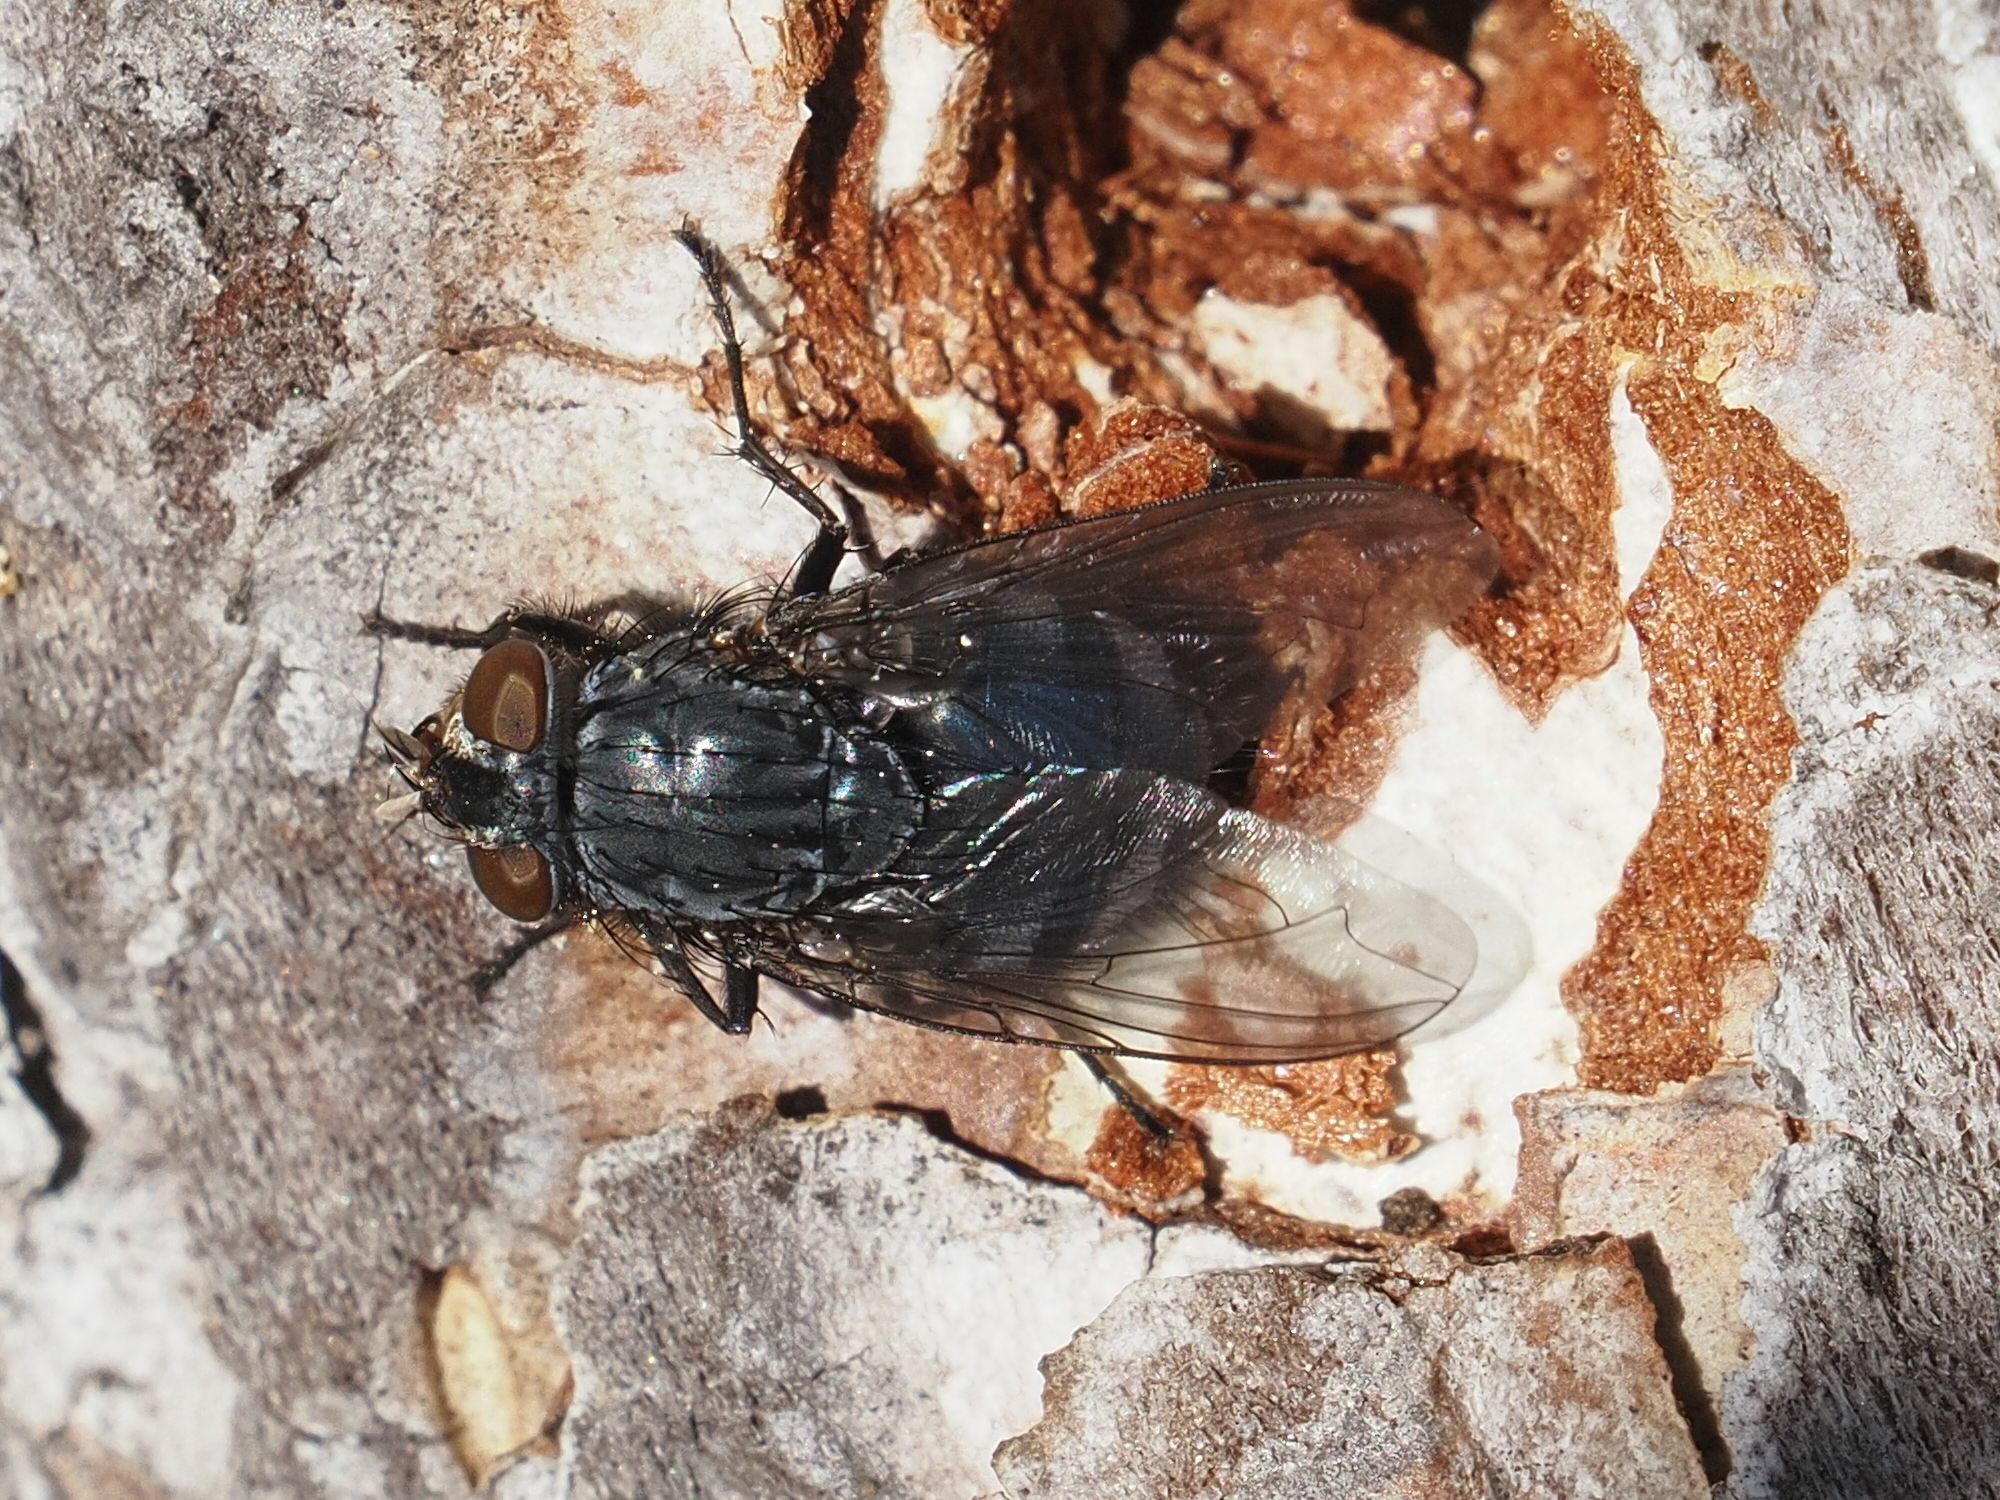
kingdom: Animalia
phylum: Arthropoda
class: Insecta
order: Diptera
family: Calliphoridae
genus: Calliphora
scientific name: Calliphora vicina
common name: Common blow flie
